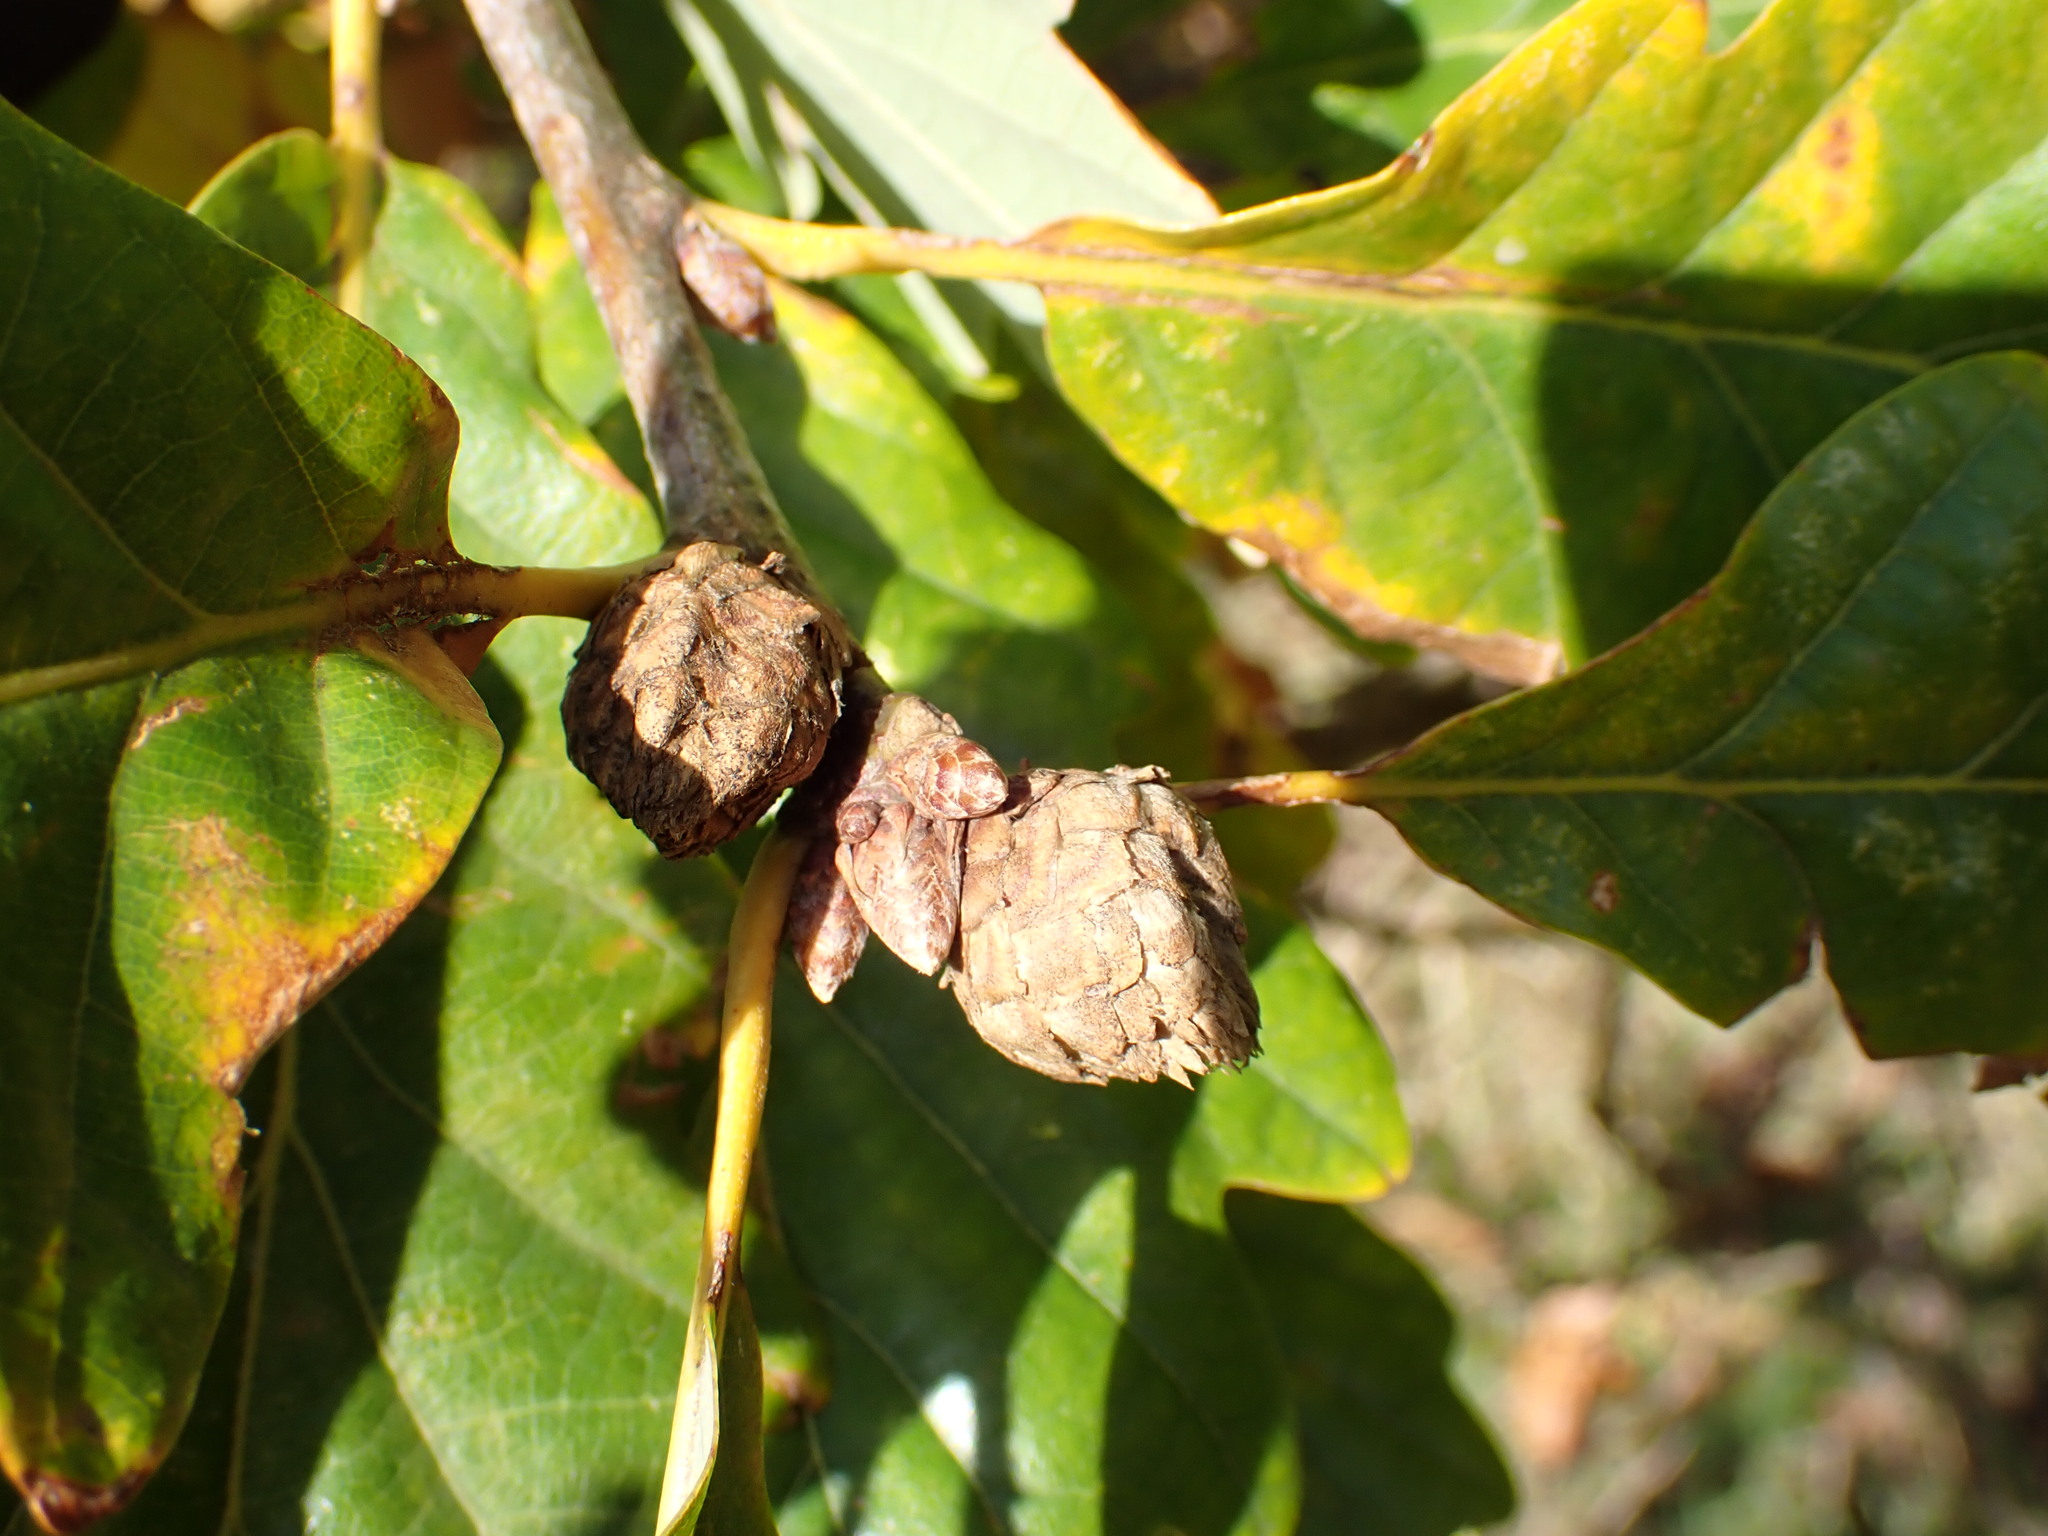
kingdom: Animalia
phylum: Arthropoda
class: Insecta
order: Hymenoptera
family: Cynipidae
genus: Andricus
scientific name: Andricus foecundatrix
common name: Artichoke gall
